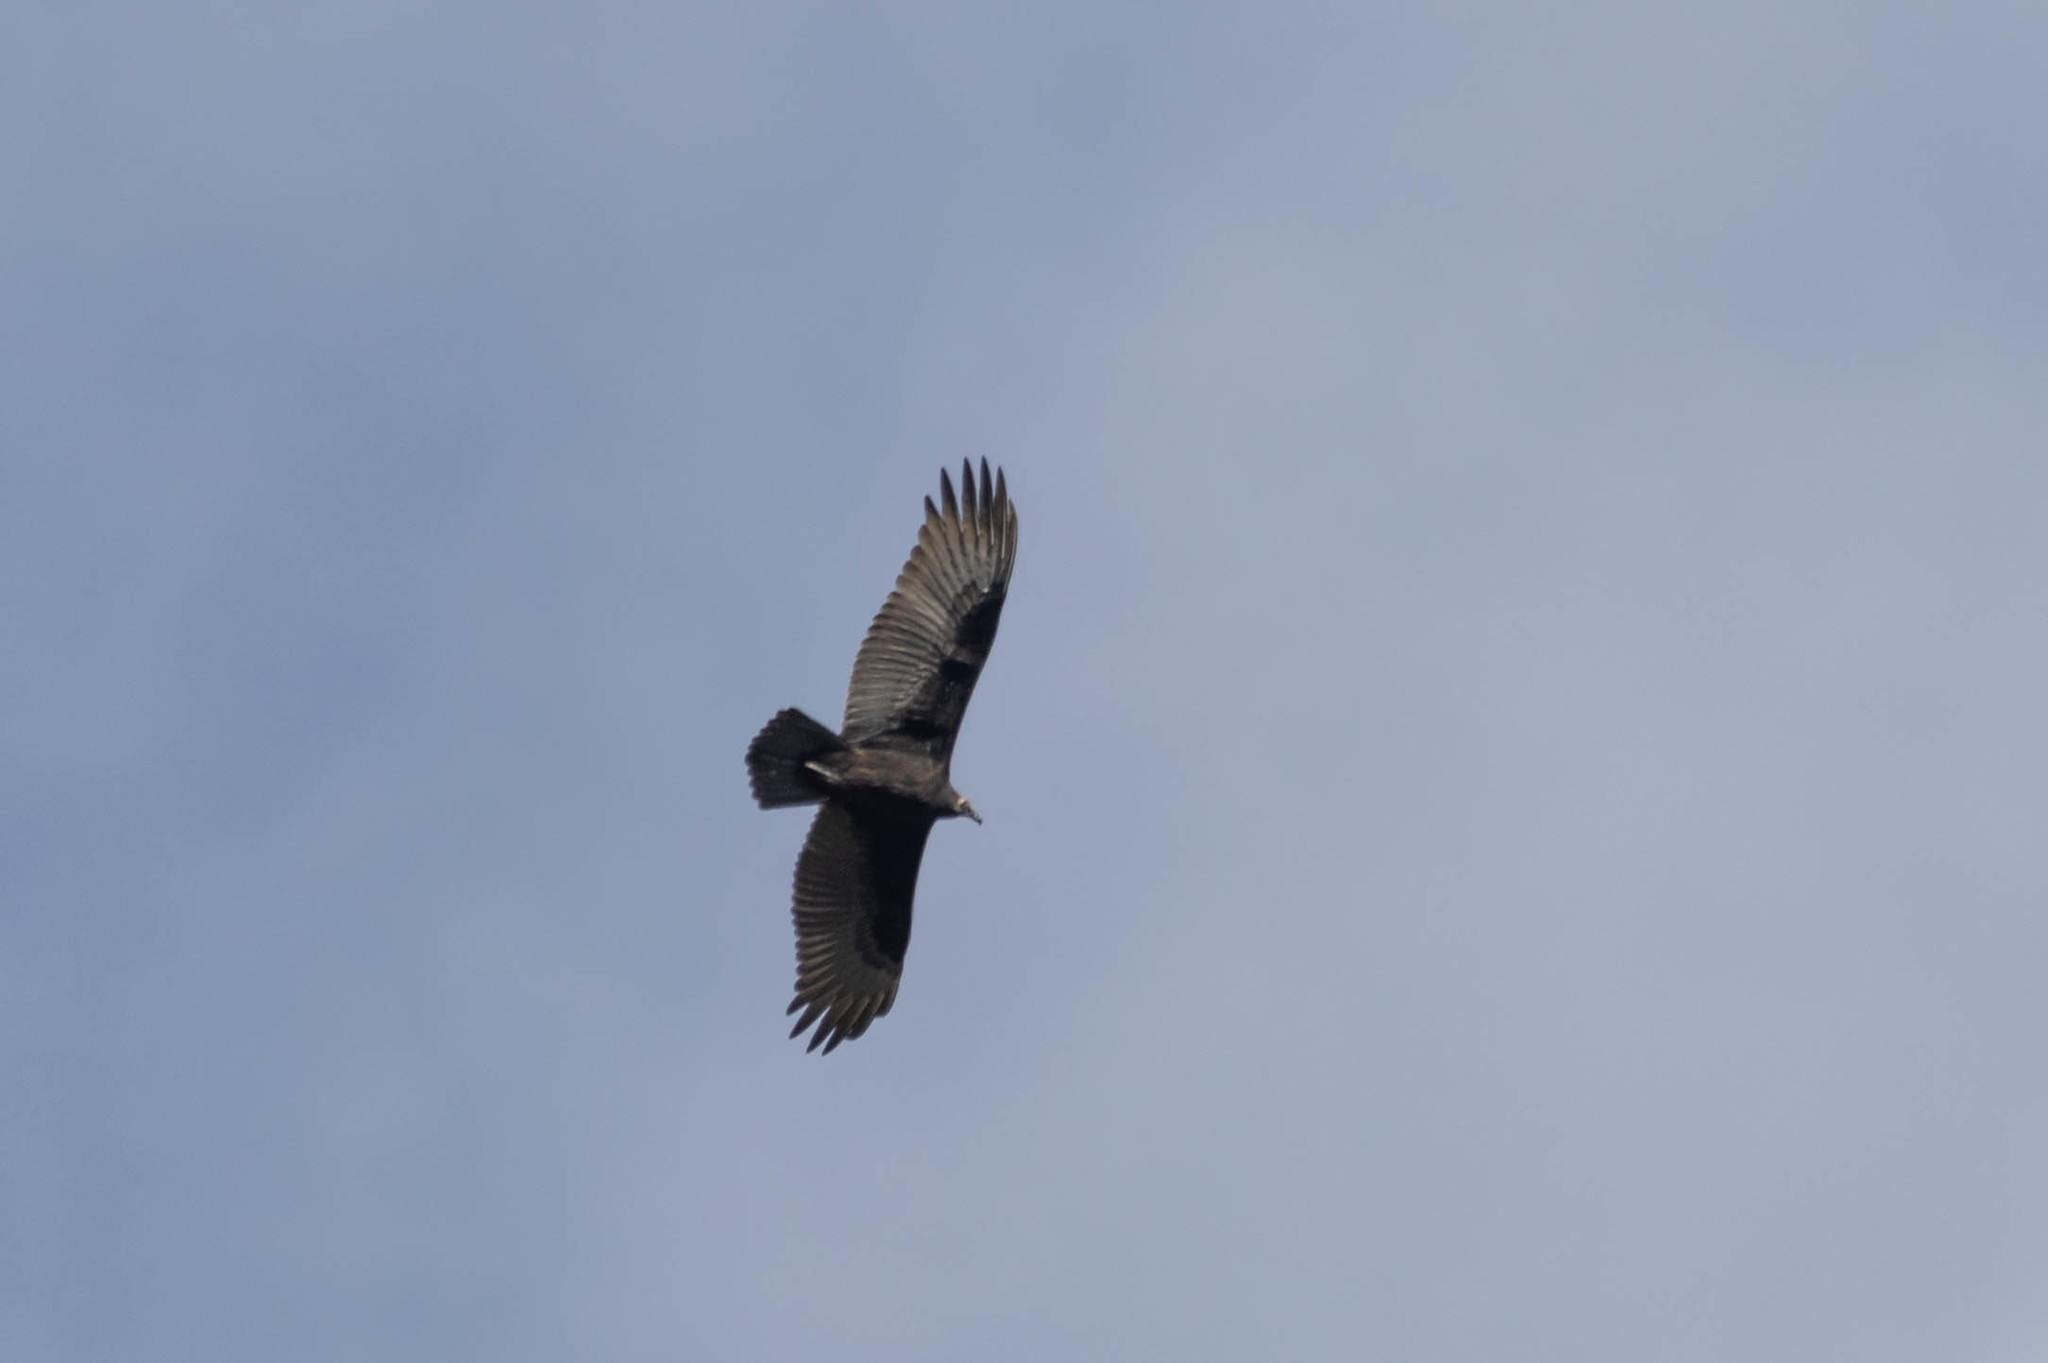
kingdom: Animalia
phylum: Chordata
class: Aves
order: Accipitriformes
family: Cathartidae
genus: Cathartes
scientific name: Cathartes aura
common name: Turkey vulture
